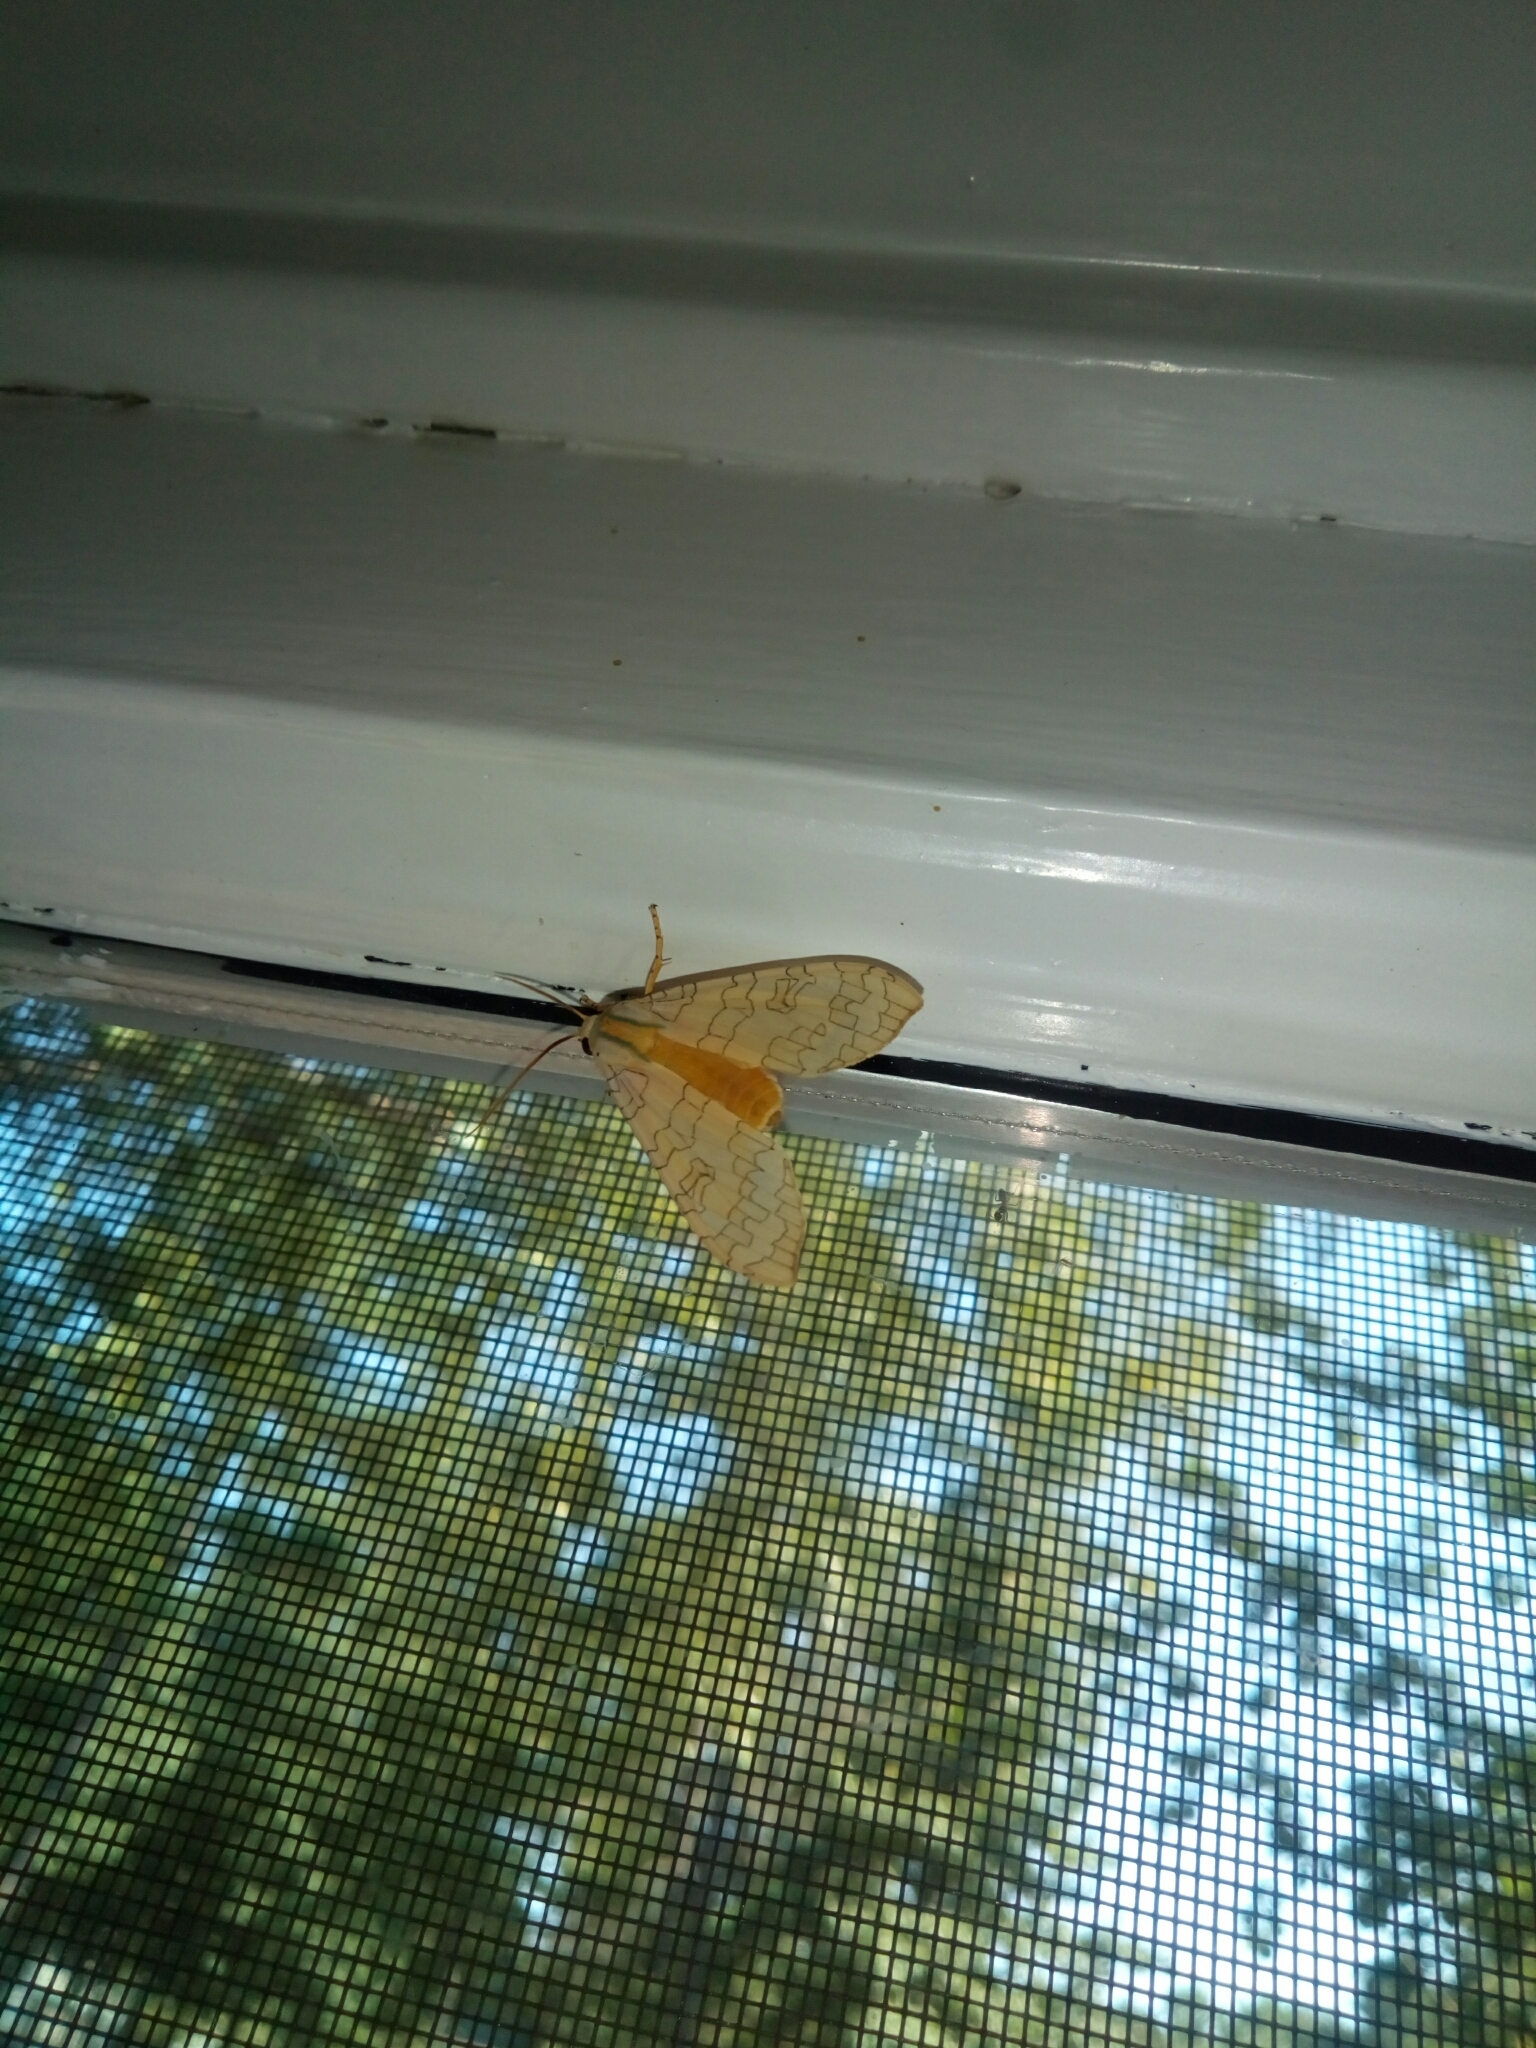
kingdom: Animalia
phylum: Arthropoda
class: Insecta
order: Lepidoptera
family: Erebidae
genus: Halysidota
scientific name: Halysidota
